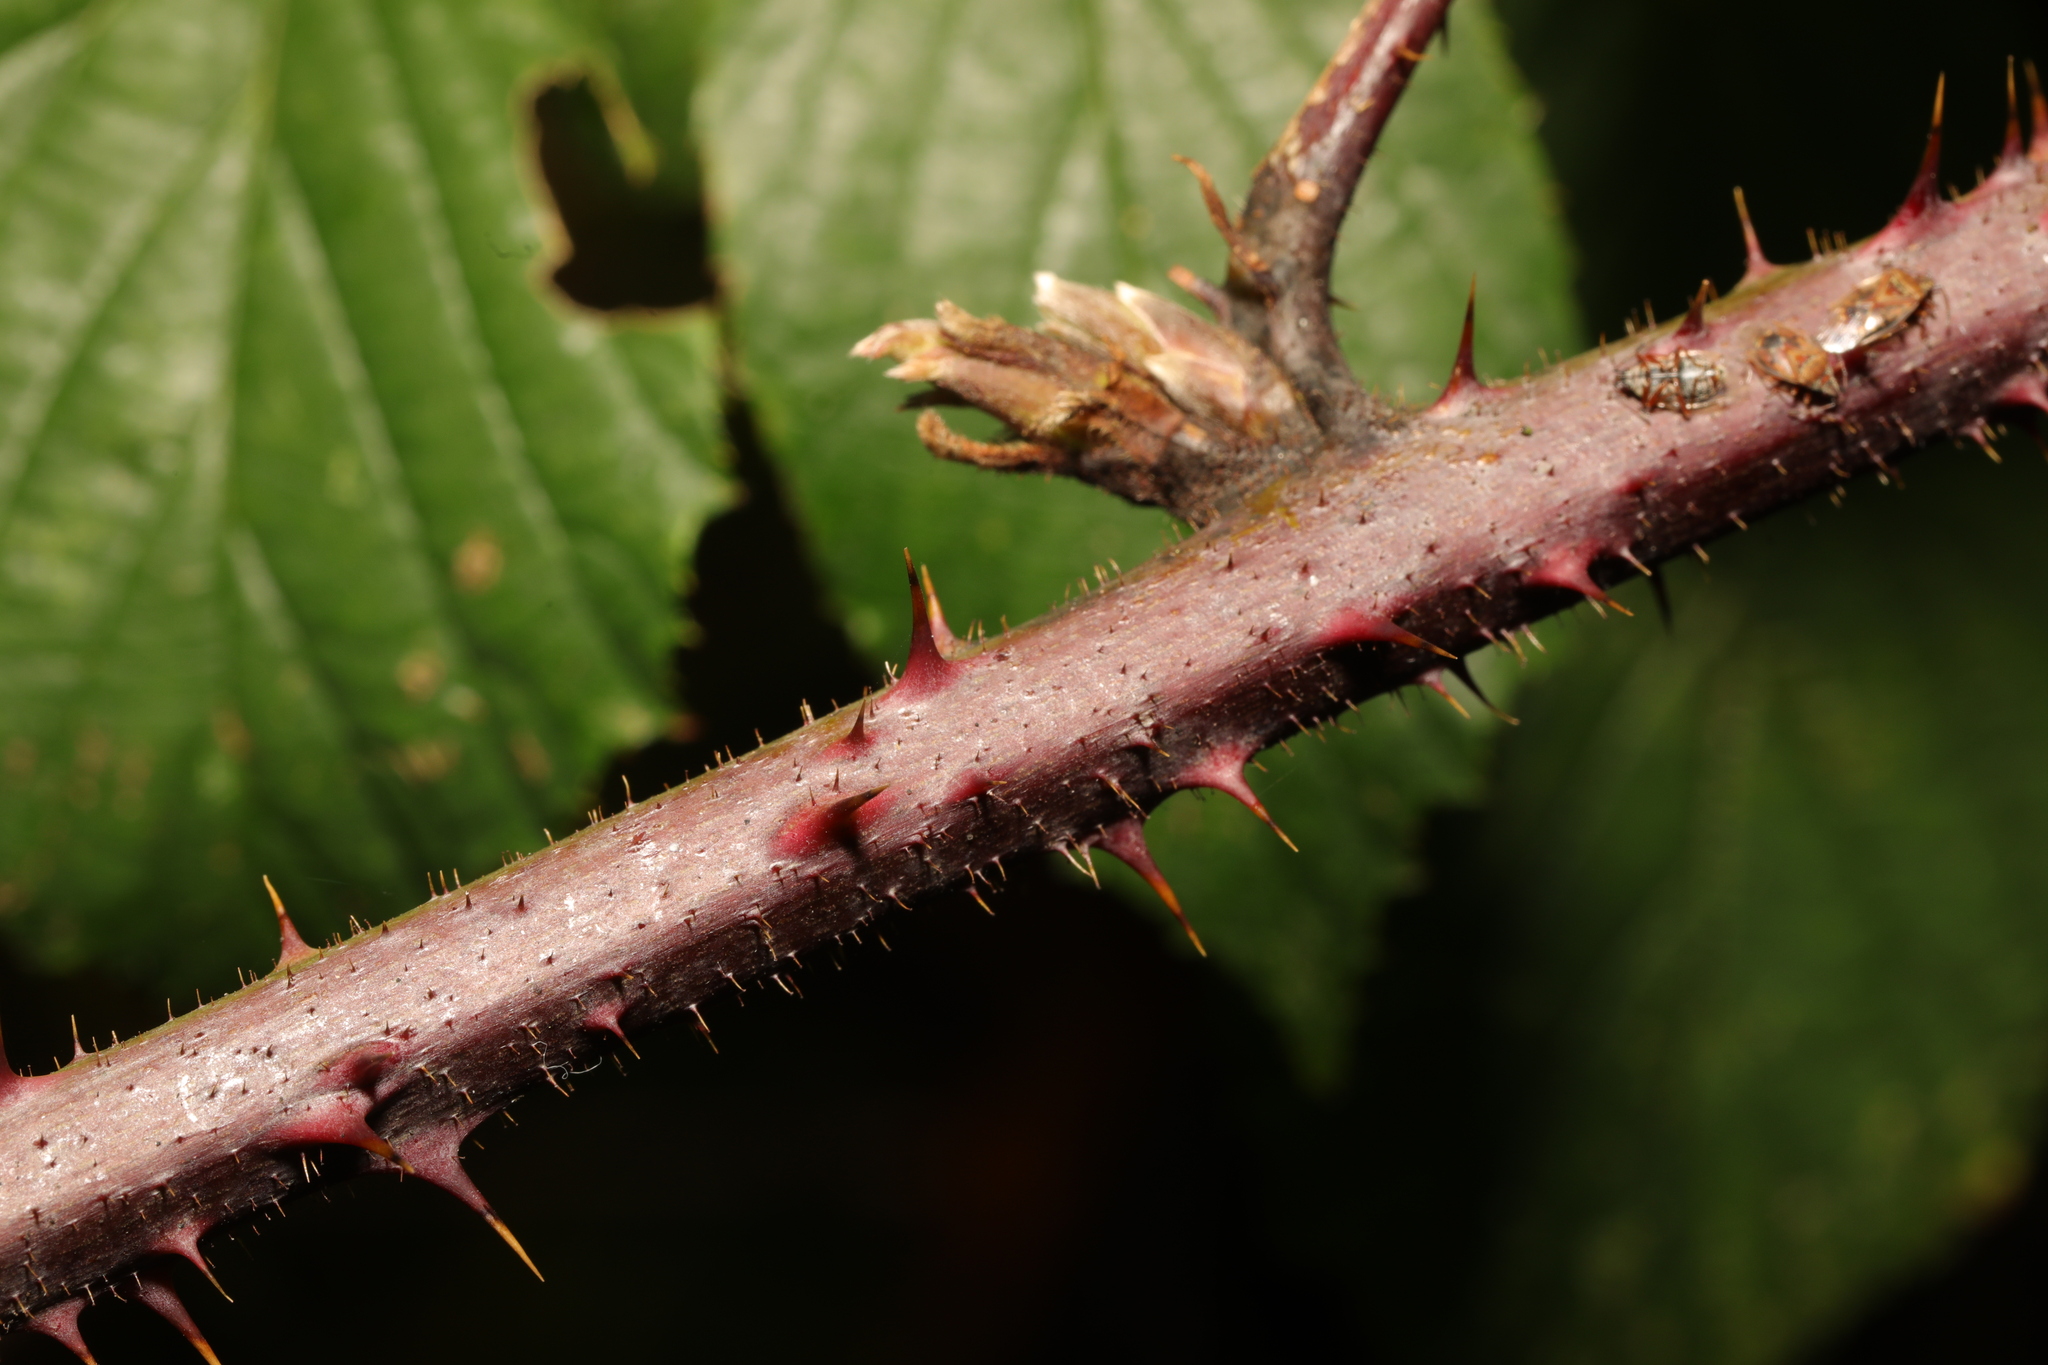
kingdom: Plantae
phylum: Tracheophyta
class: Magnoliopsida
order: Rosales
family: Rosaceae
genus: Rubus
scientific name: Rubus hylocharis
